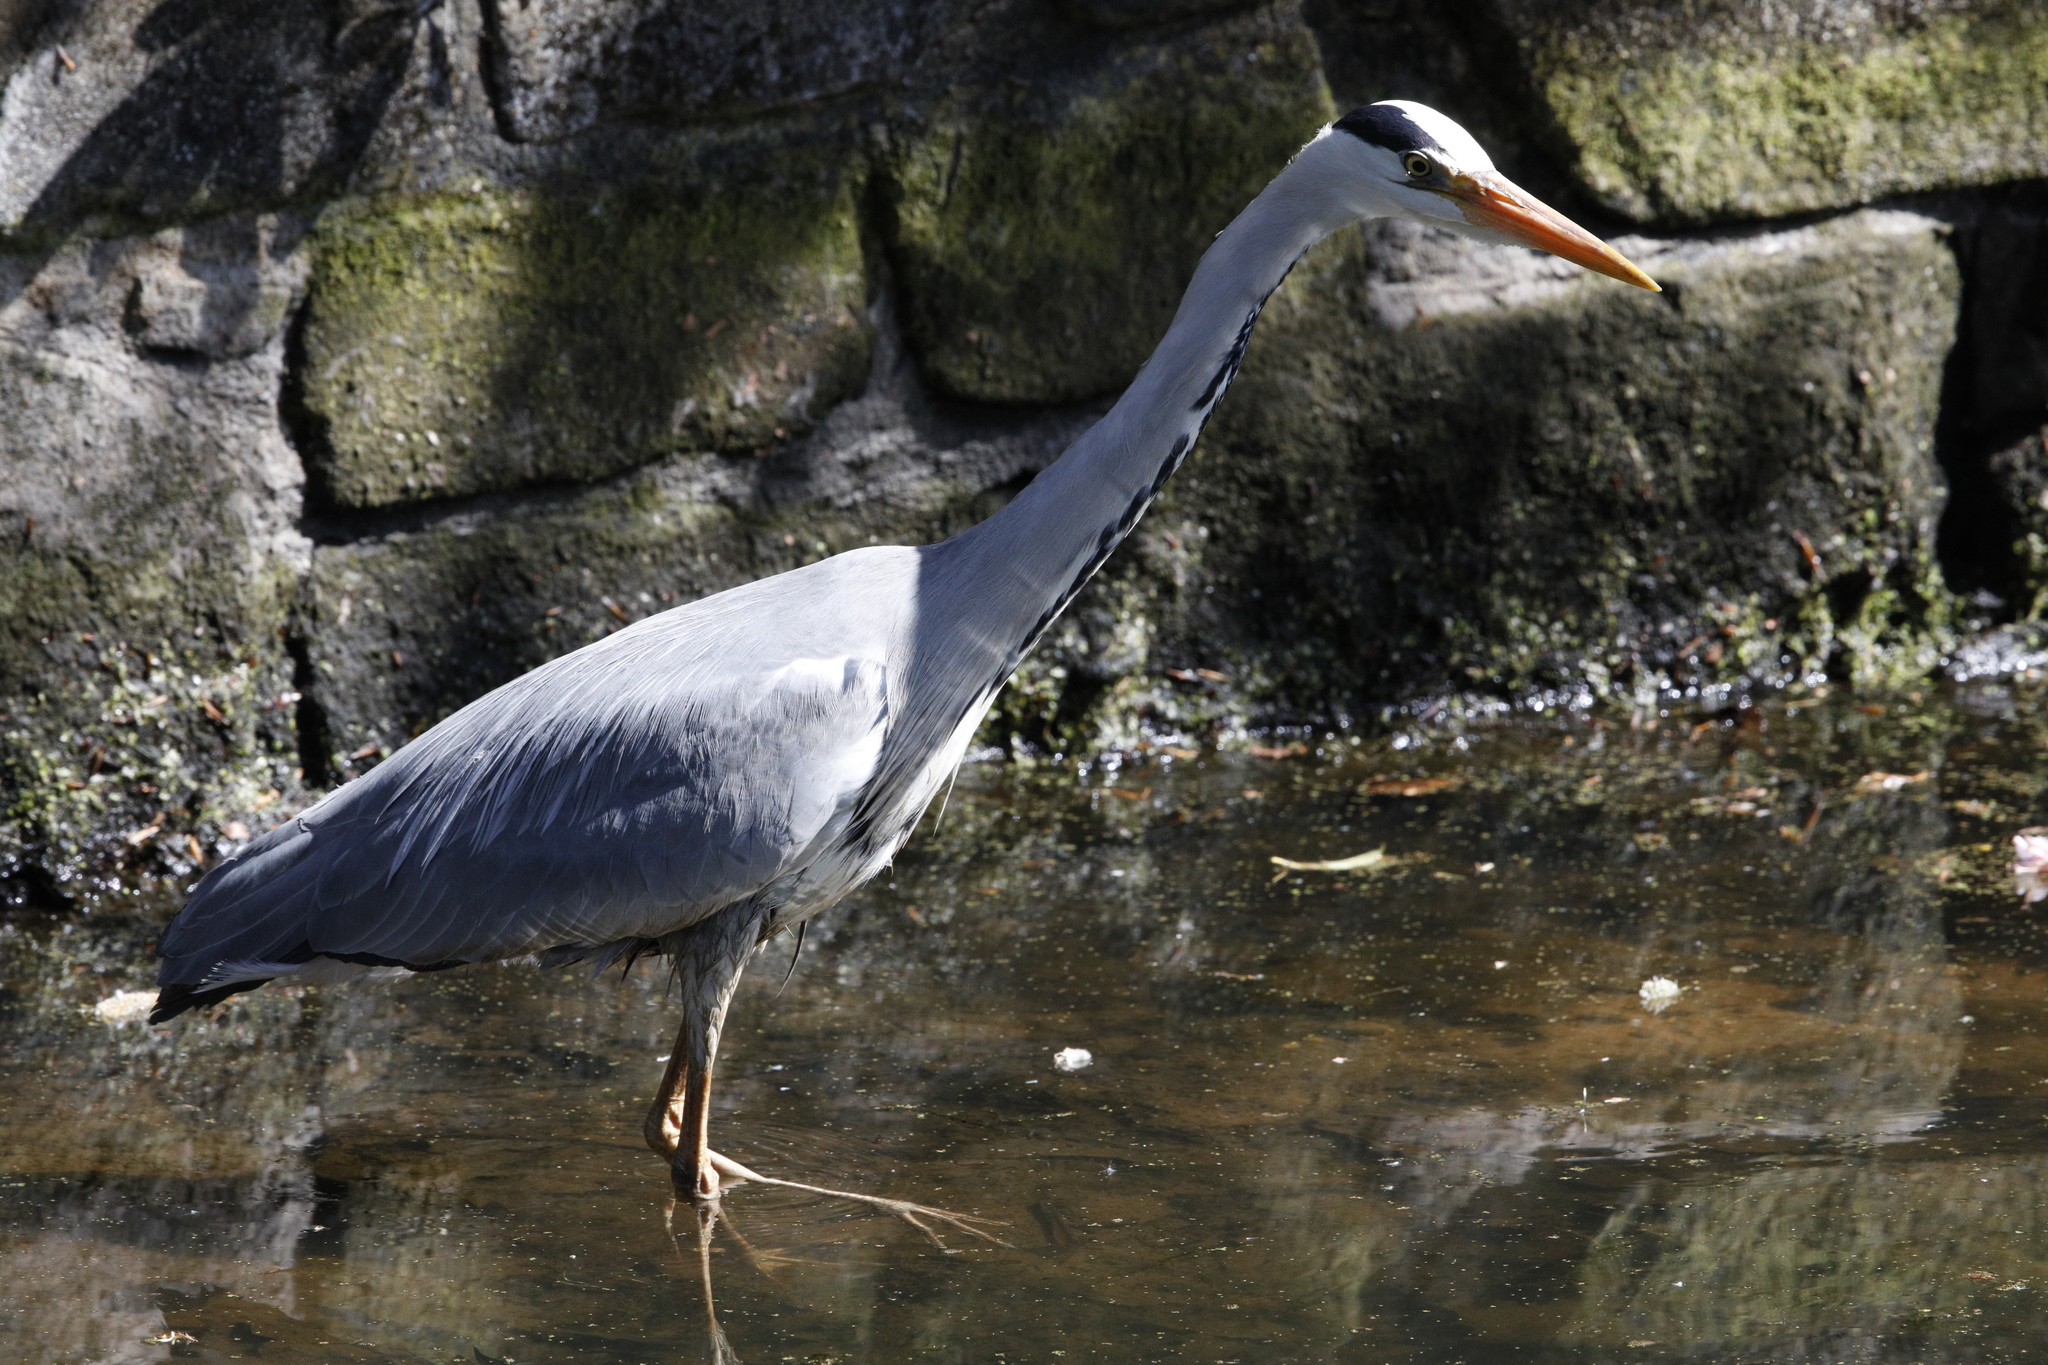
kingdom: Animalia
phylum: Chordata
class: Aves
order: Pelecaniformes
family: Ardeidae
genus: Ardea
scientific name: Ardea cinerea
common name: Grey heron
